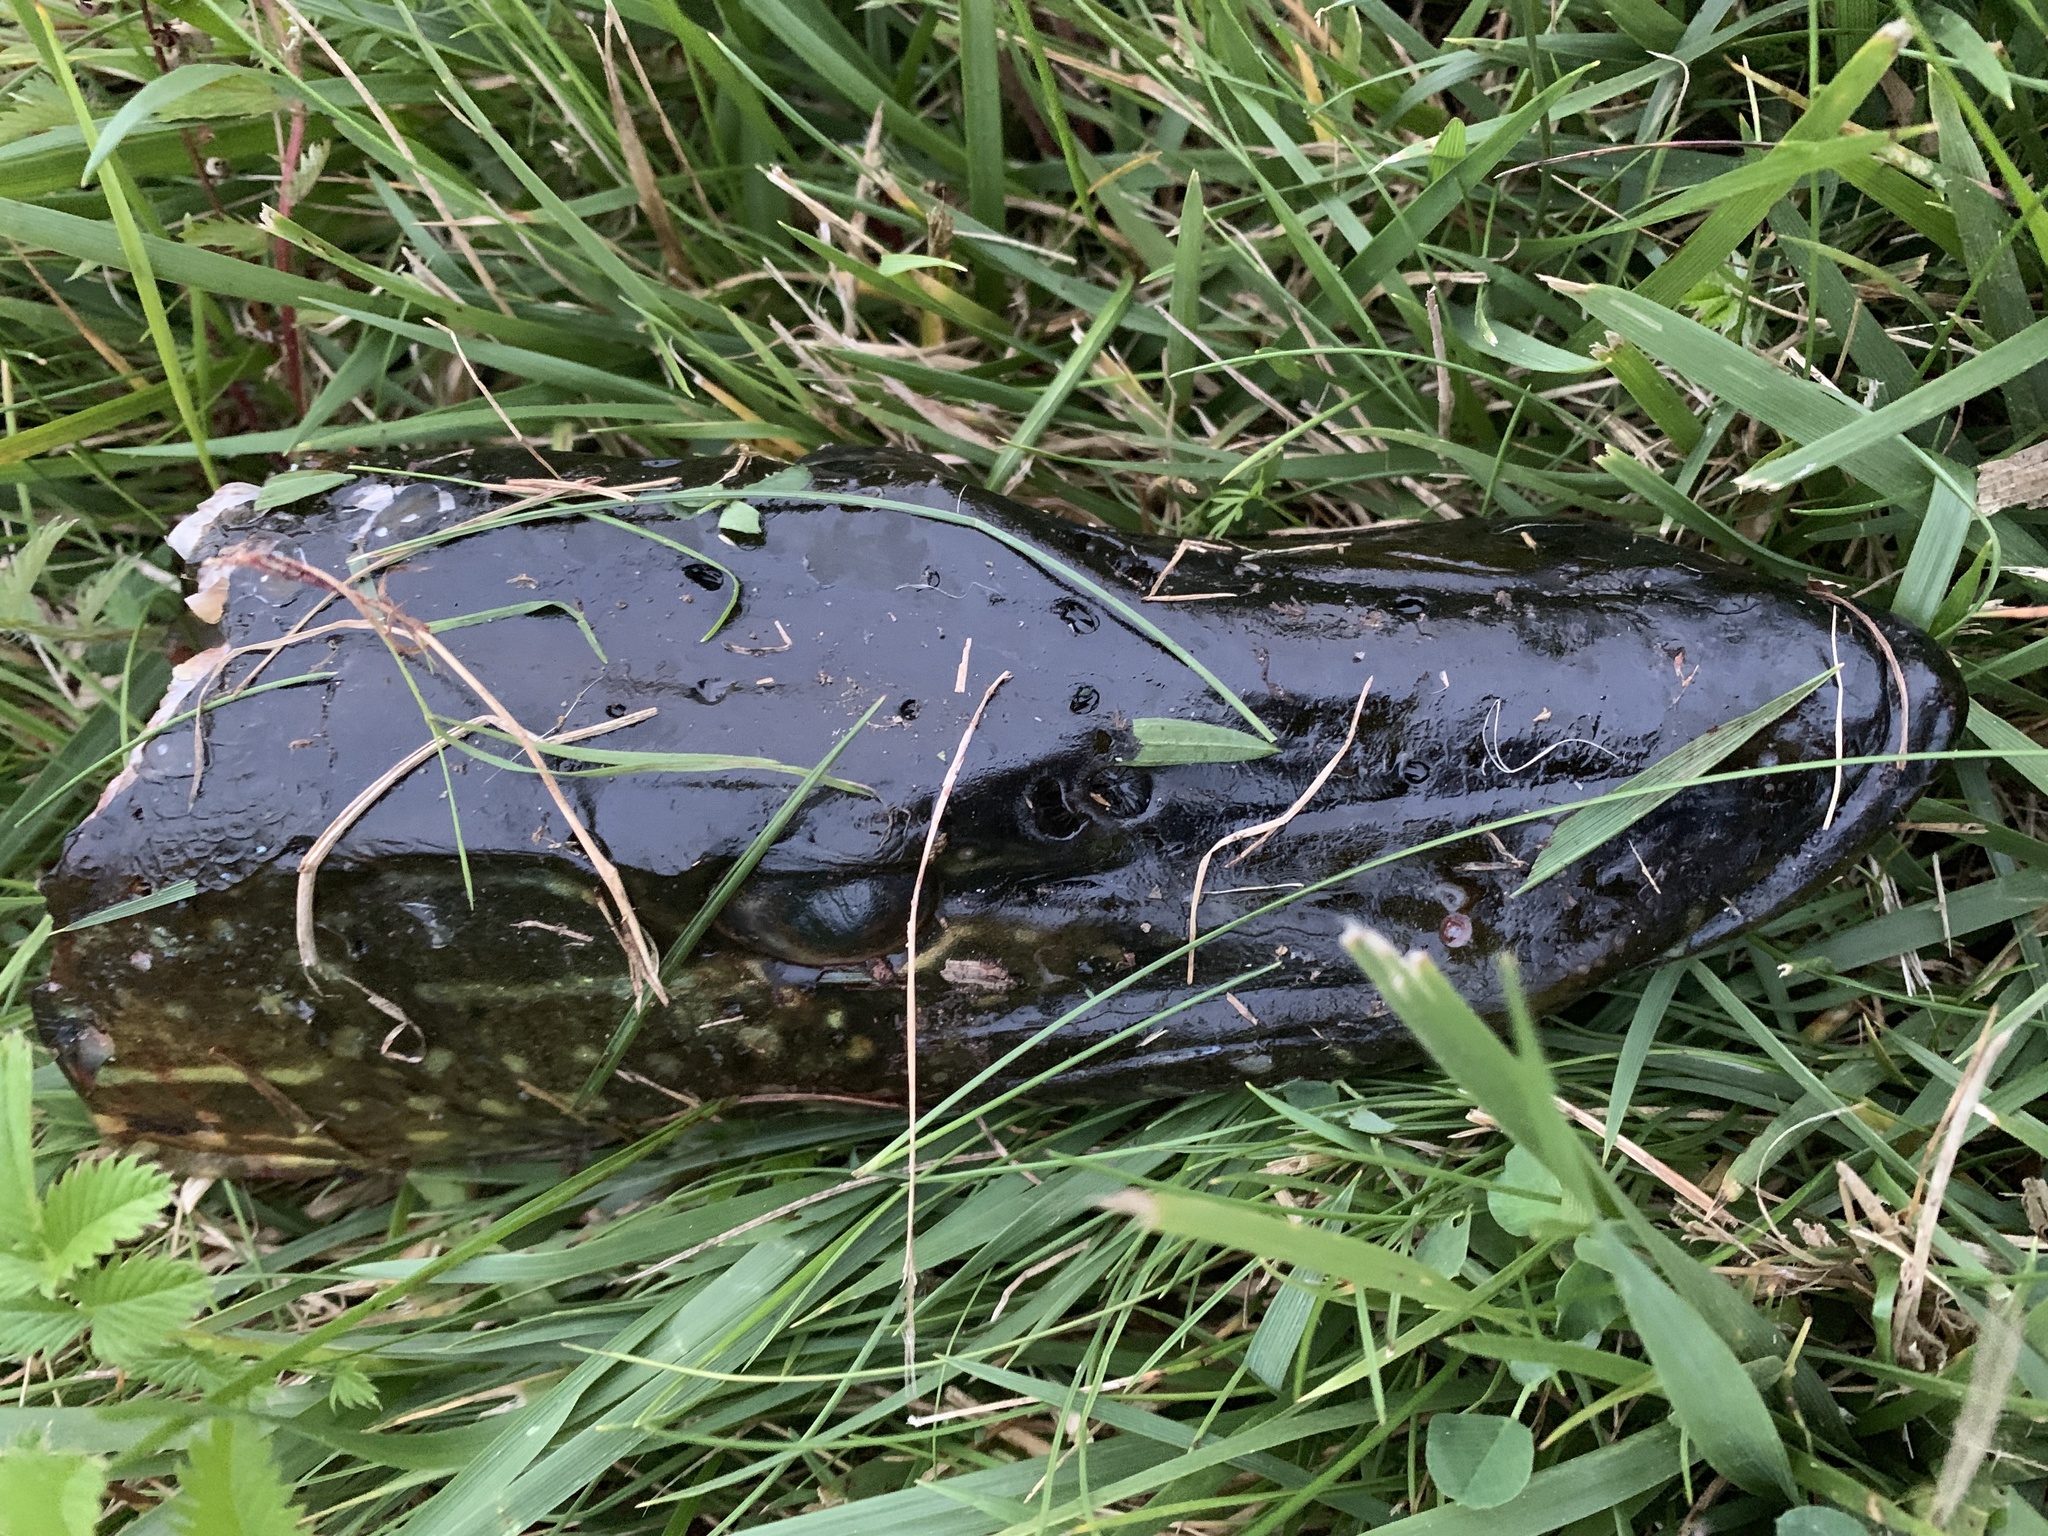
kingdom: Animalia
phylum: Chordata
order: Esociformes
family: Esocidae
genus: Esox
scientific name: Esox lucius
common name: Northern pike
